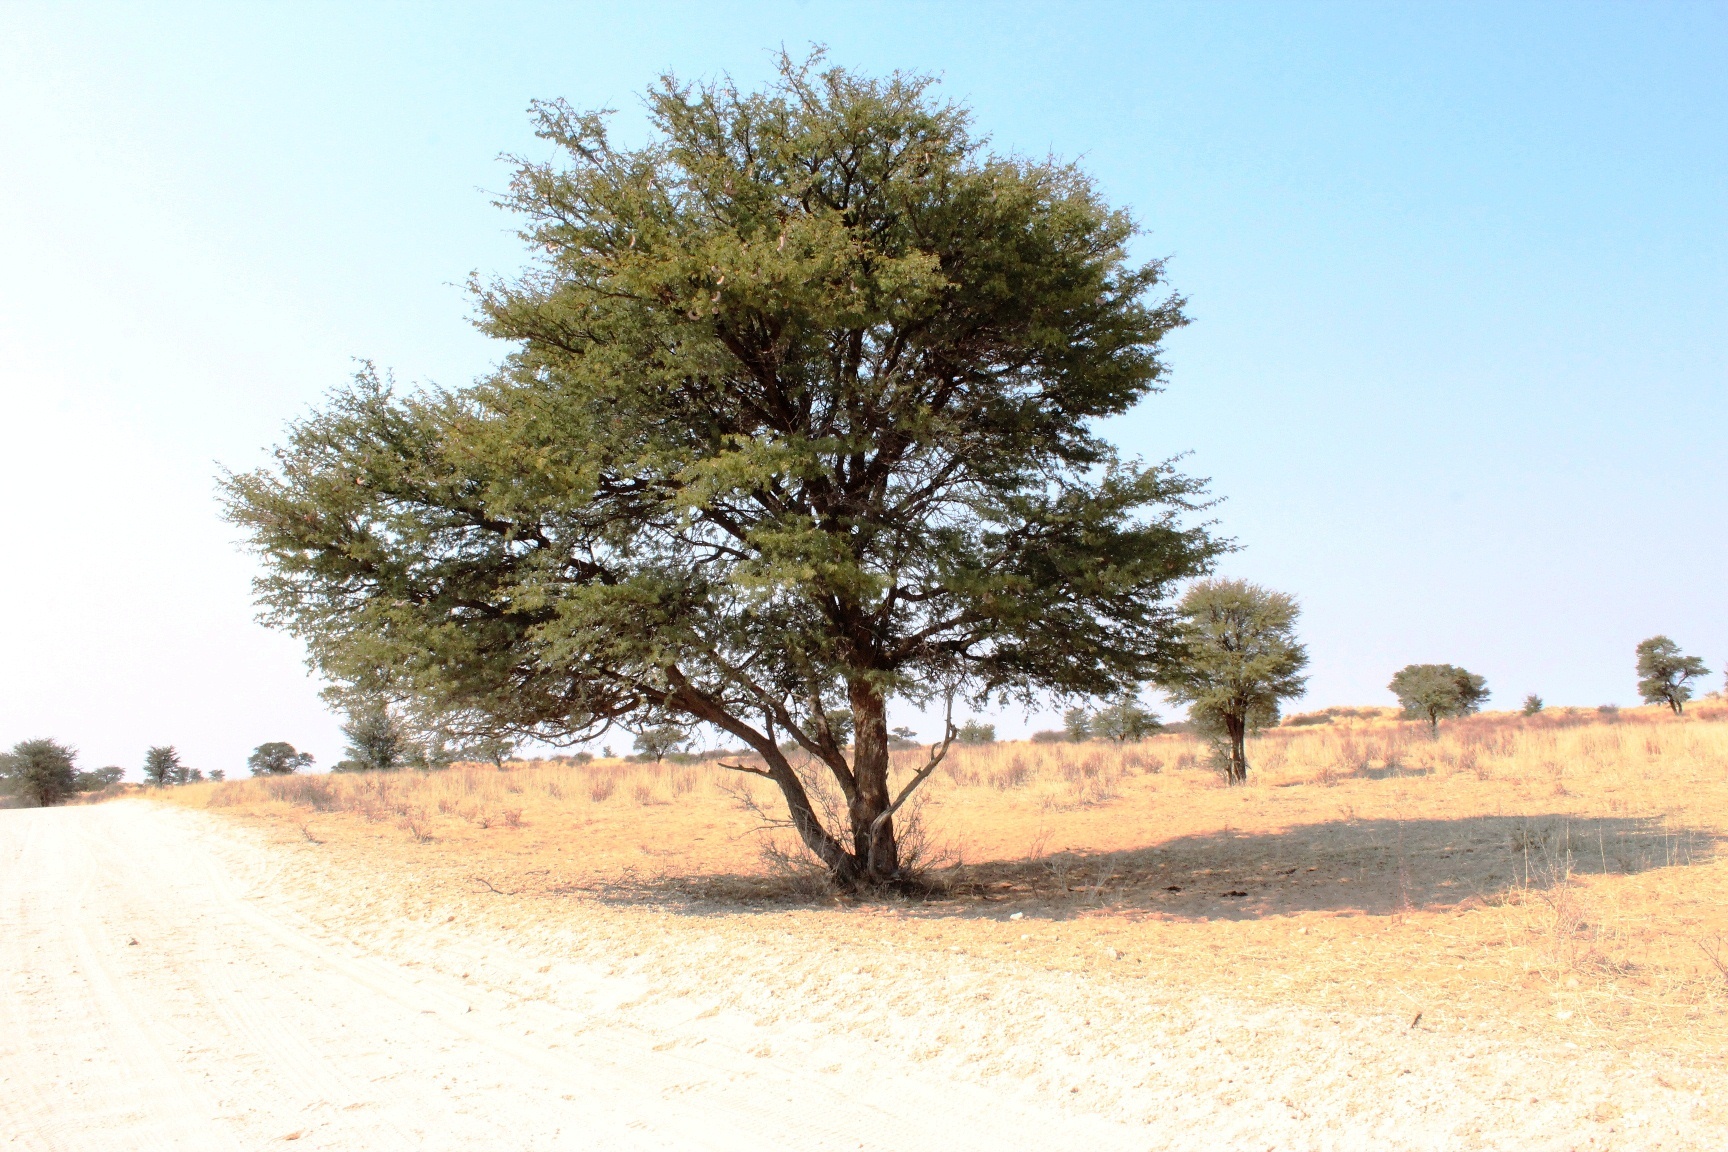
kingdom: Plantae
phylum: Tracheophyta
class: Magnoliopsida
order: Fabales
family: Fabaceae
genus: Vachellia
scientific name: Vachellia erioloba
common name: Camel thorn
